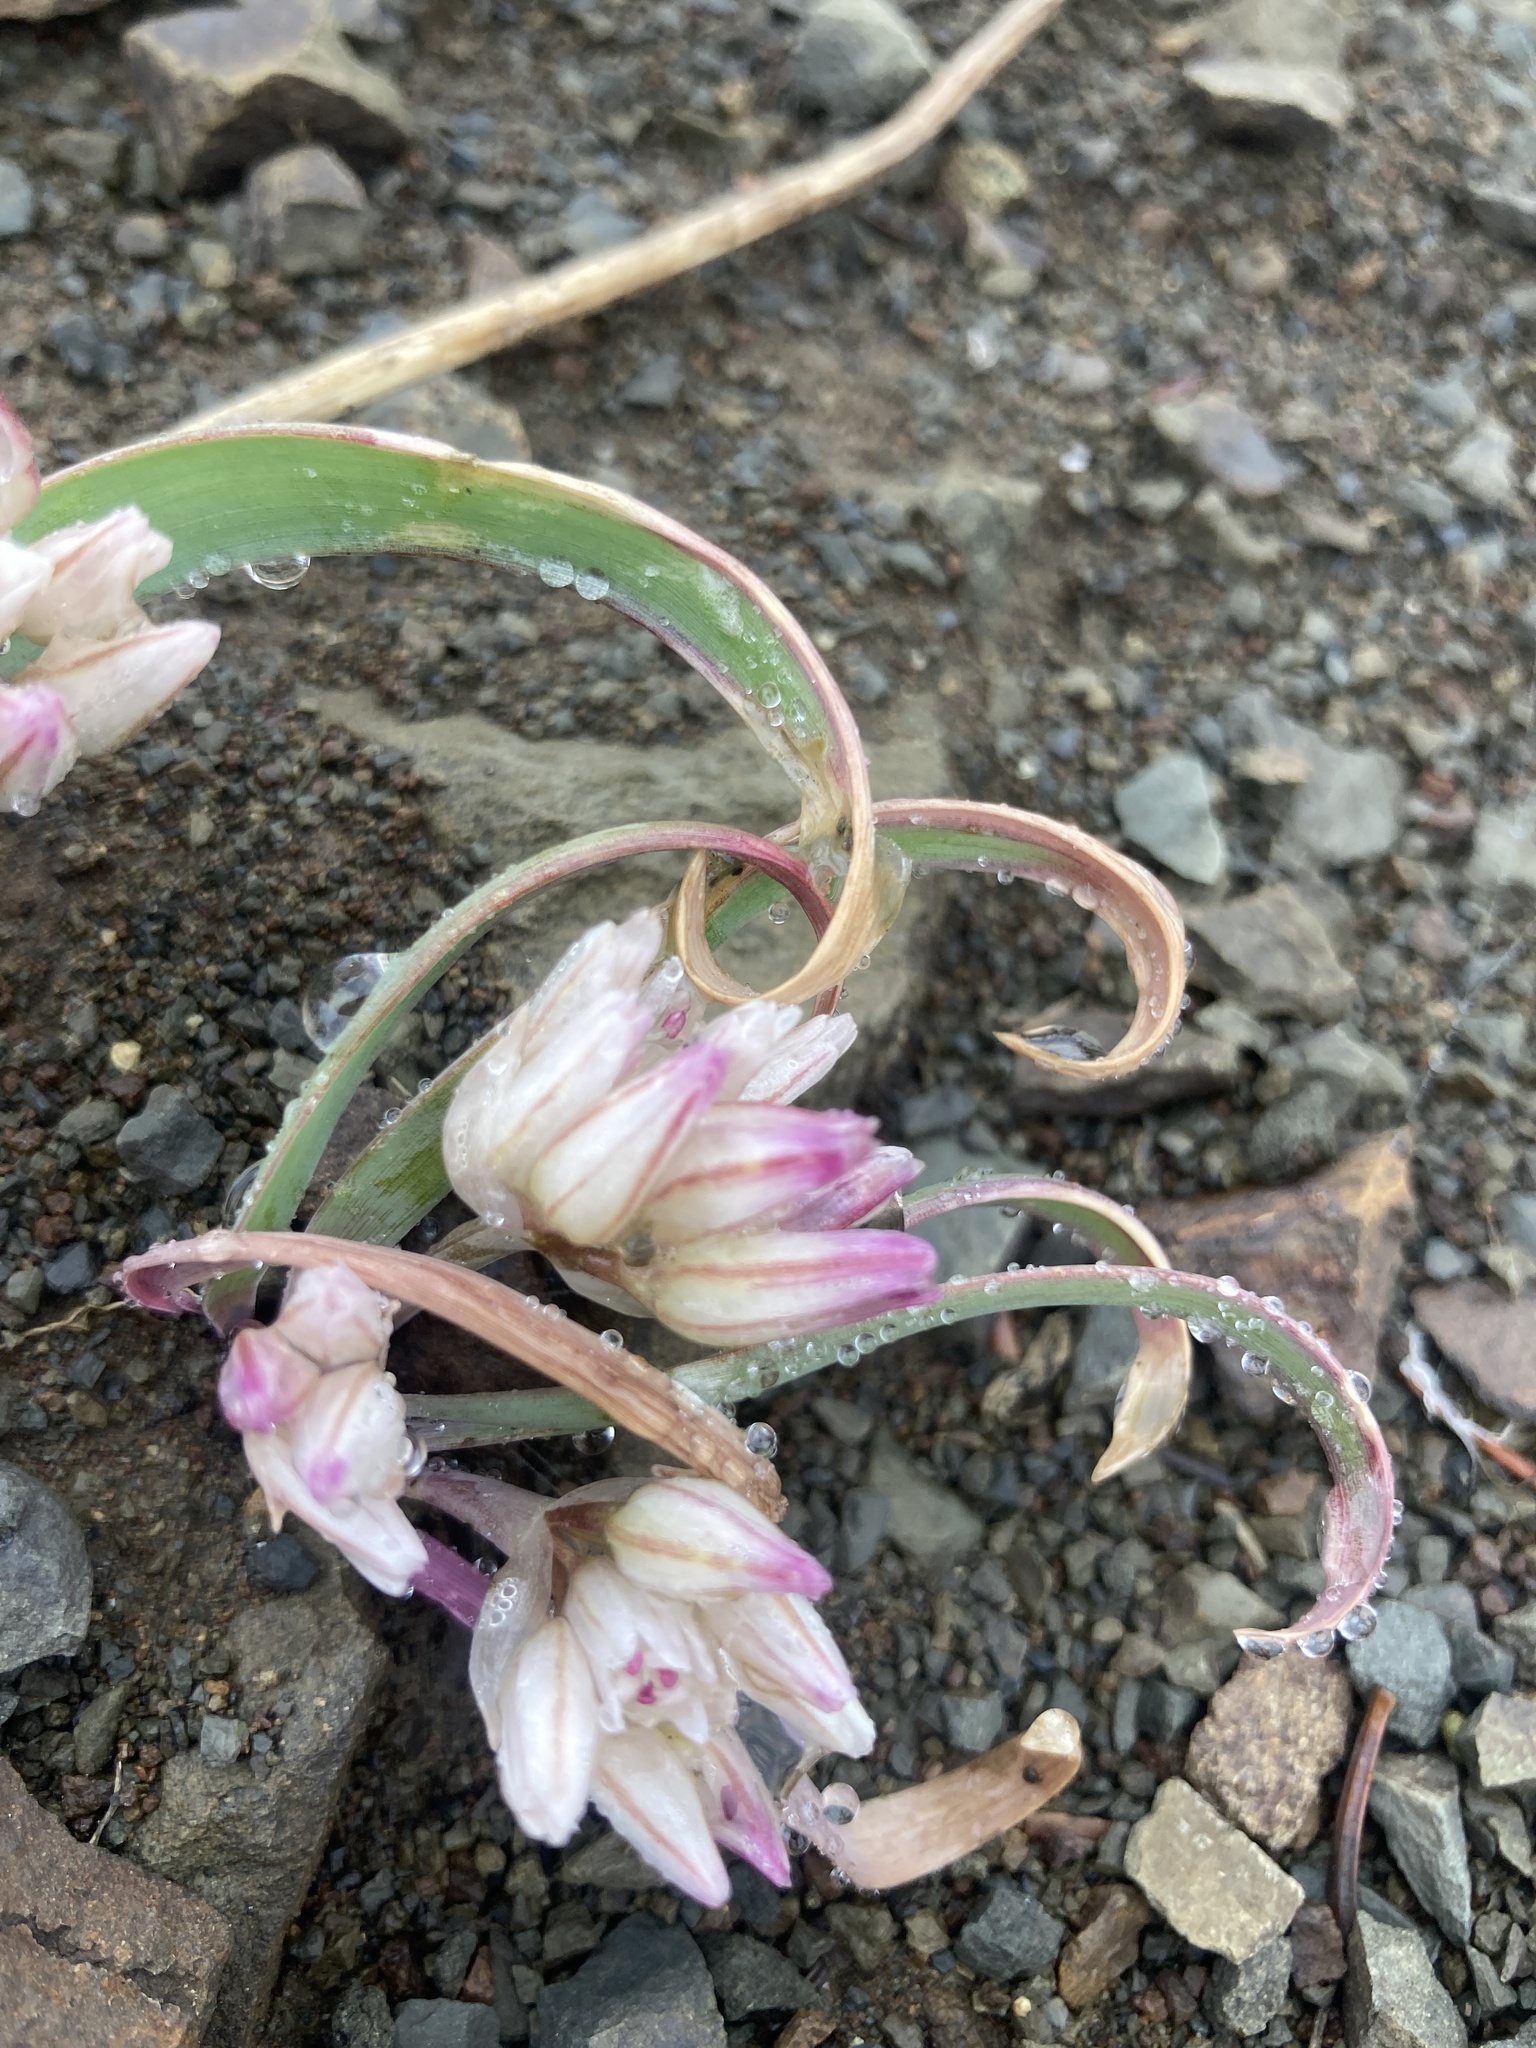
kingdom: Plantae
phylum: Tracheophyta
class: Liliopsida
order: Asparagales
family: Amaryllidaceae
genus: Allium
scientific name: Allium crenulatum
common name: Olympic onion
